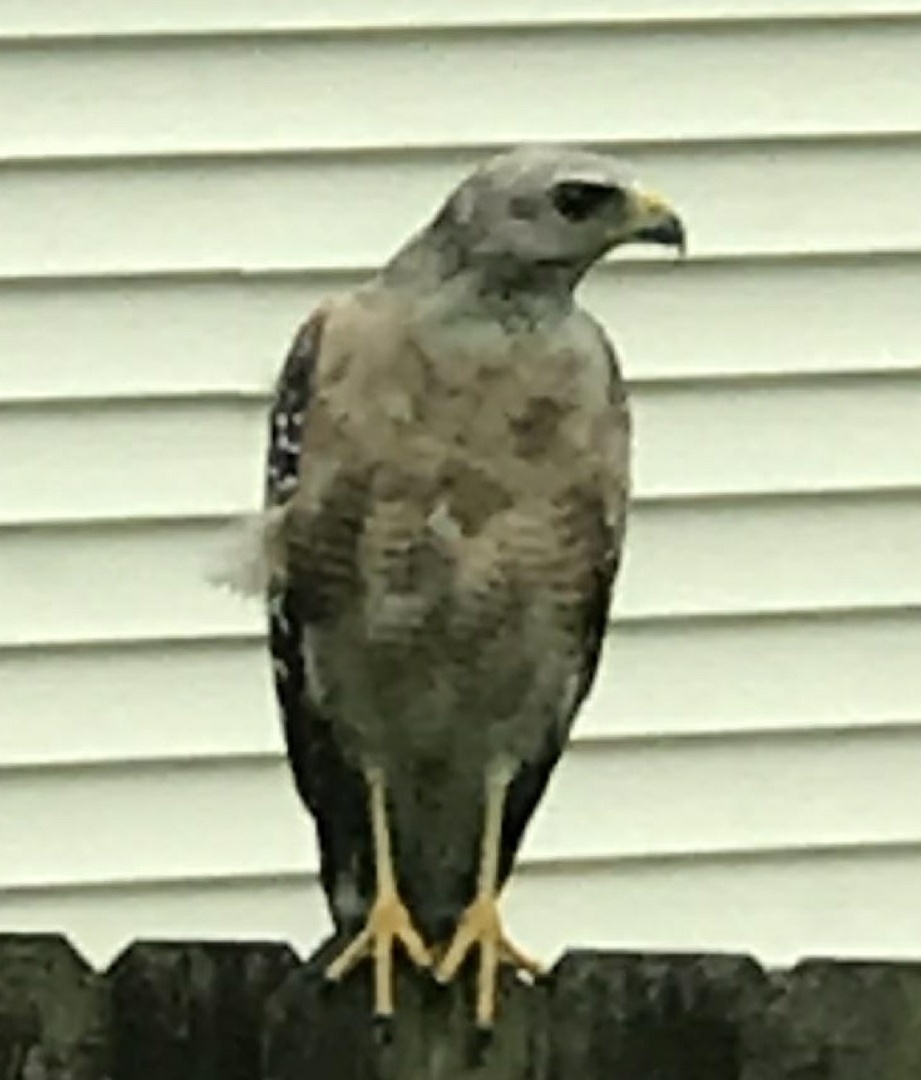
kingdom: Animalia
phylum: Chordata
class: Aves
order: Accipitriformes
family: Accipitridae
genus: Buteo
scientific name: Buteo lineatus
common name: Red-shouldered hawk
